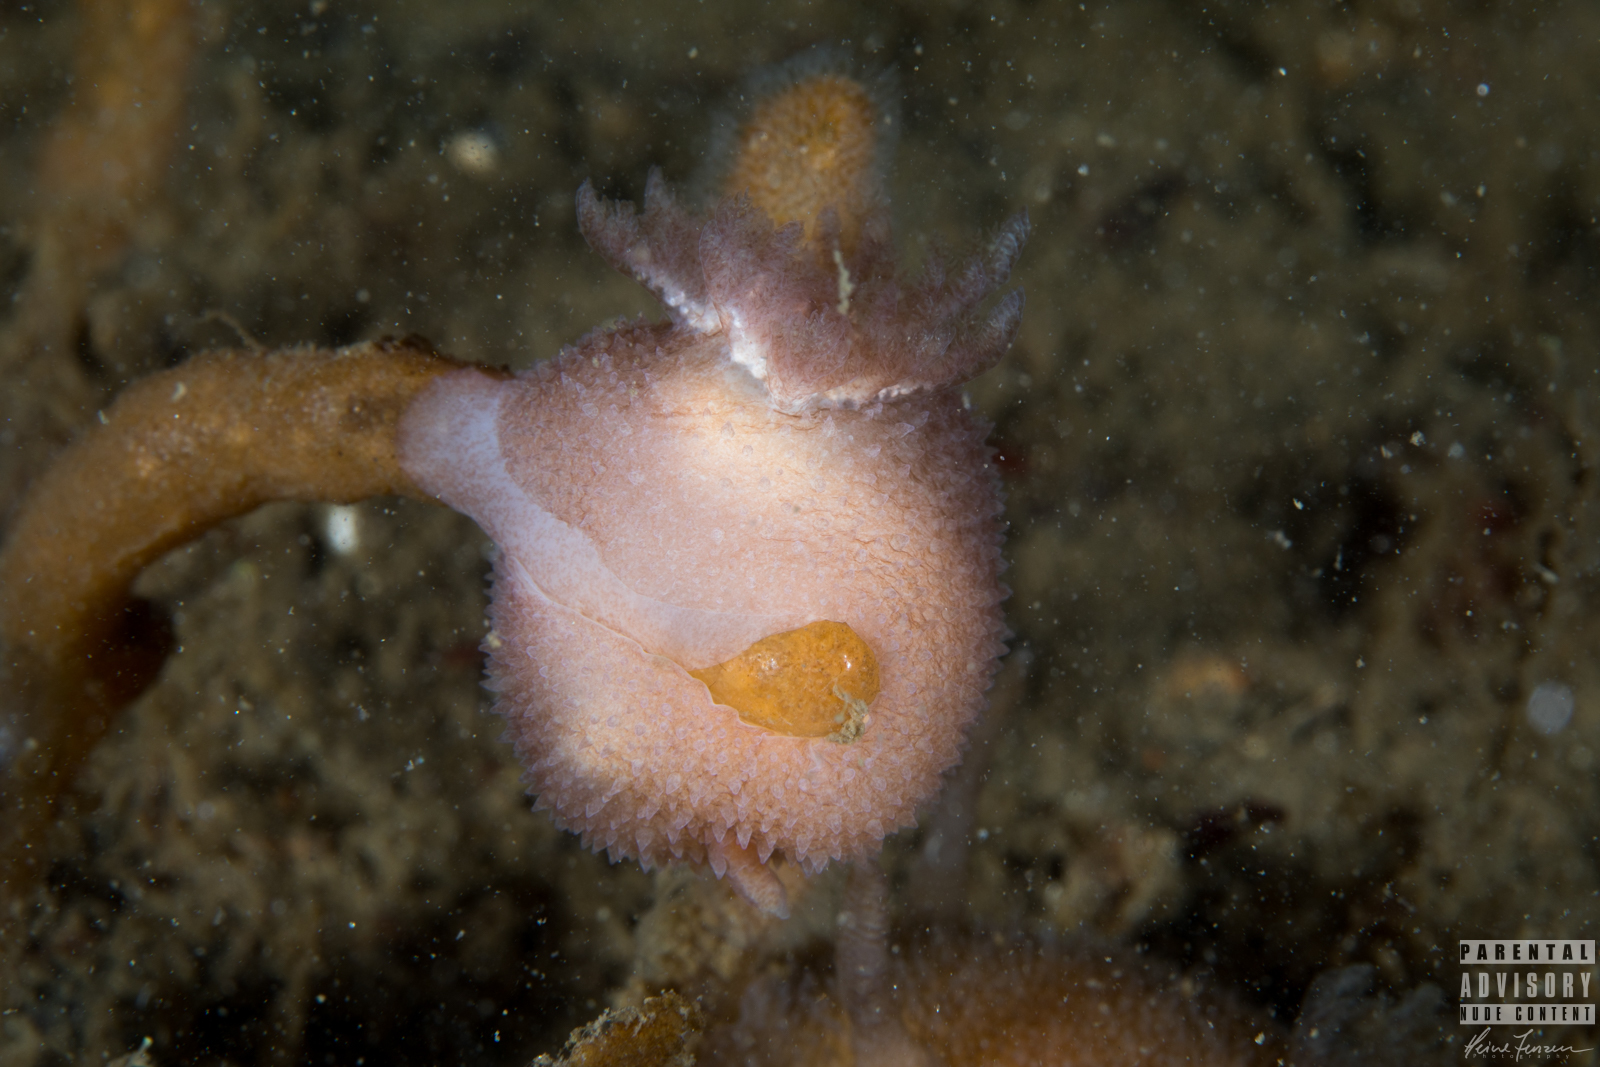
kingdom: Animalia
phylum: Mollusca
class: Gastropoda
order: Nudibranchia
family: Onchidorididae
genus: Acanthodoris
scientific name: Acanthodoris pilosa
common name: Hairy spiny doris
